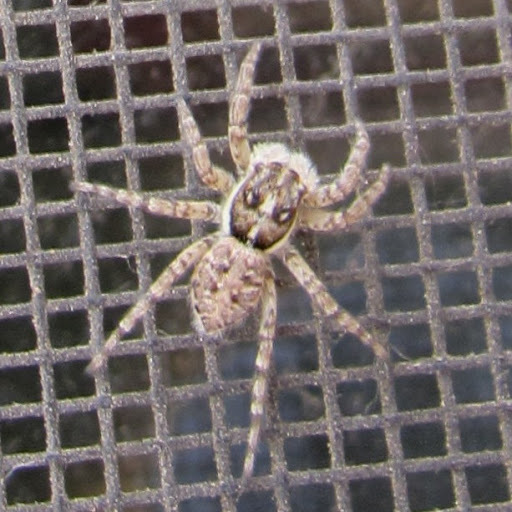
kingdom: Animalia
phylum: Arthropoda
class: Arachnida
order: Araneae
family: Salticidae
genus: Menemerus
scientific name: Menemerus semilimbatus
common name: Jumping spider
